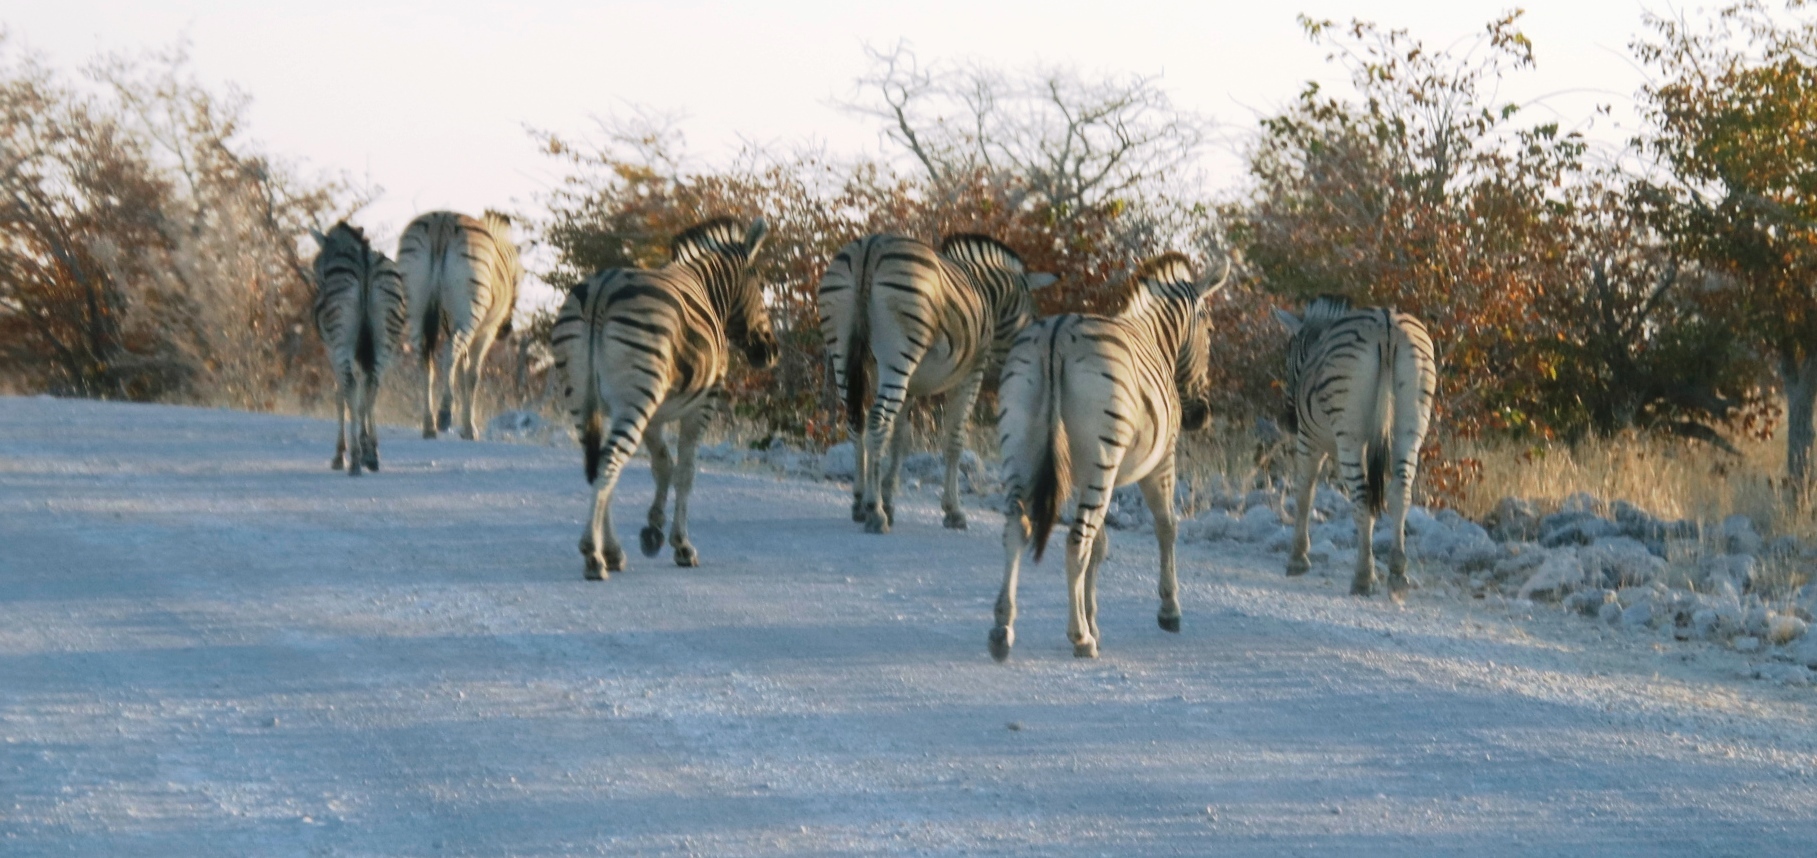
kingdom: Animalia
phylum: Chordata
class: Mammalia
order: Perissodactyla
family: Equidae
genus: Equus
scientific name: Equus quagga
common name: Plains zebra
